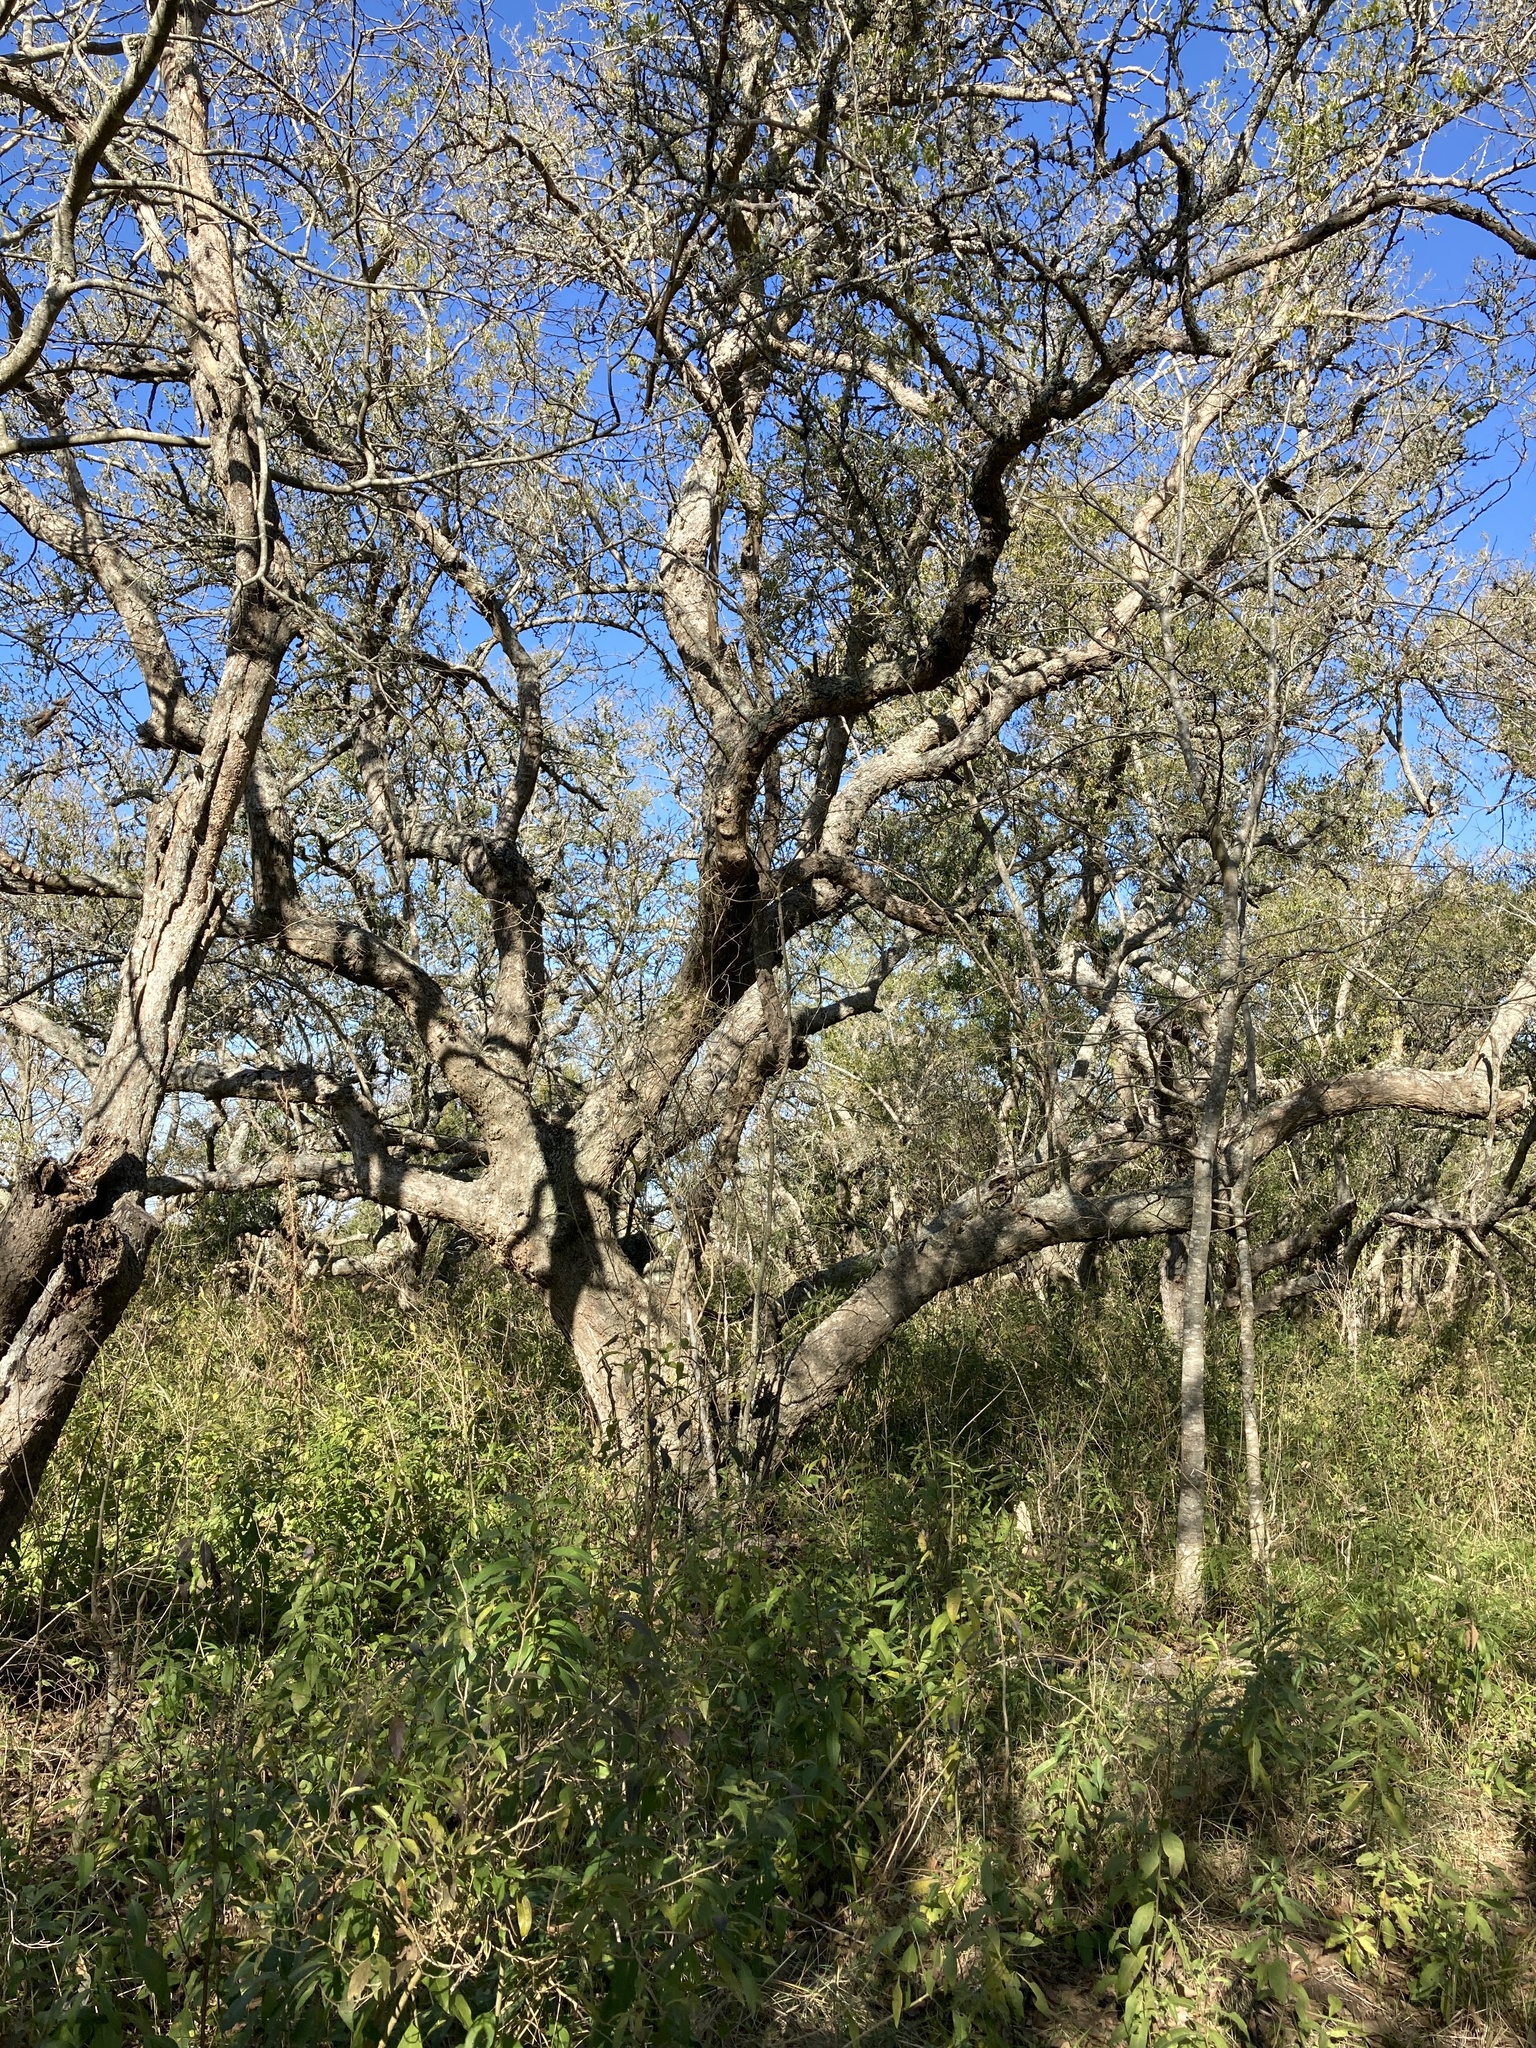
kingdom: Plantae
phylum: Tracheophyta
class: Magnoliopsida
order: Rosales
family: Cannabaceae
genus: Celtis
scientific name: Celtis tala
